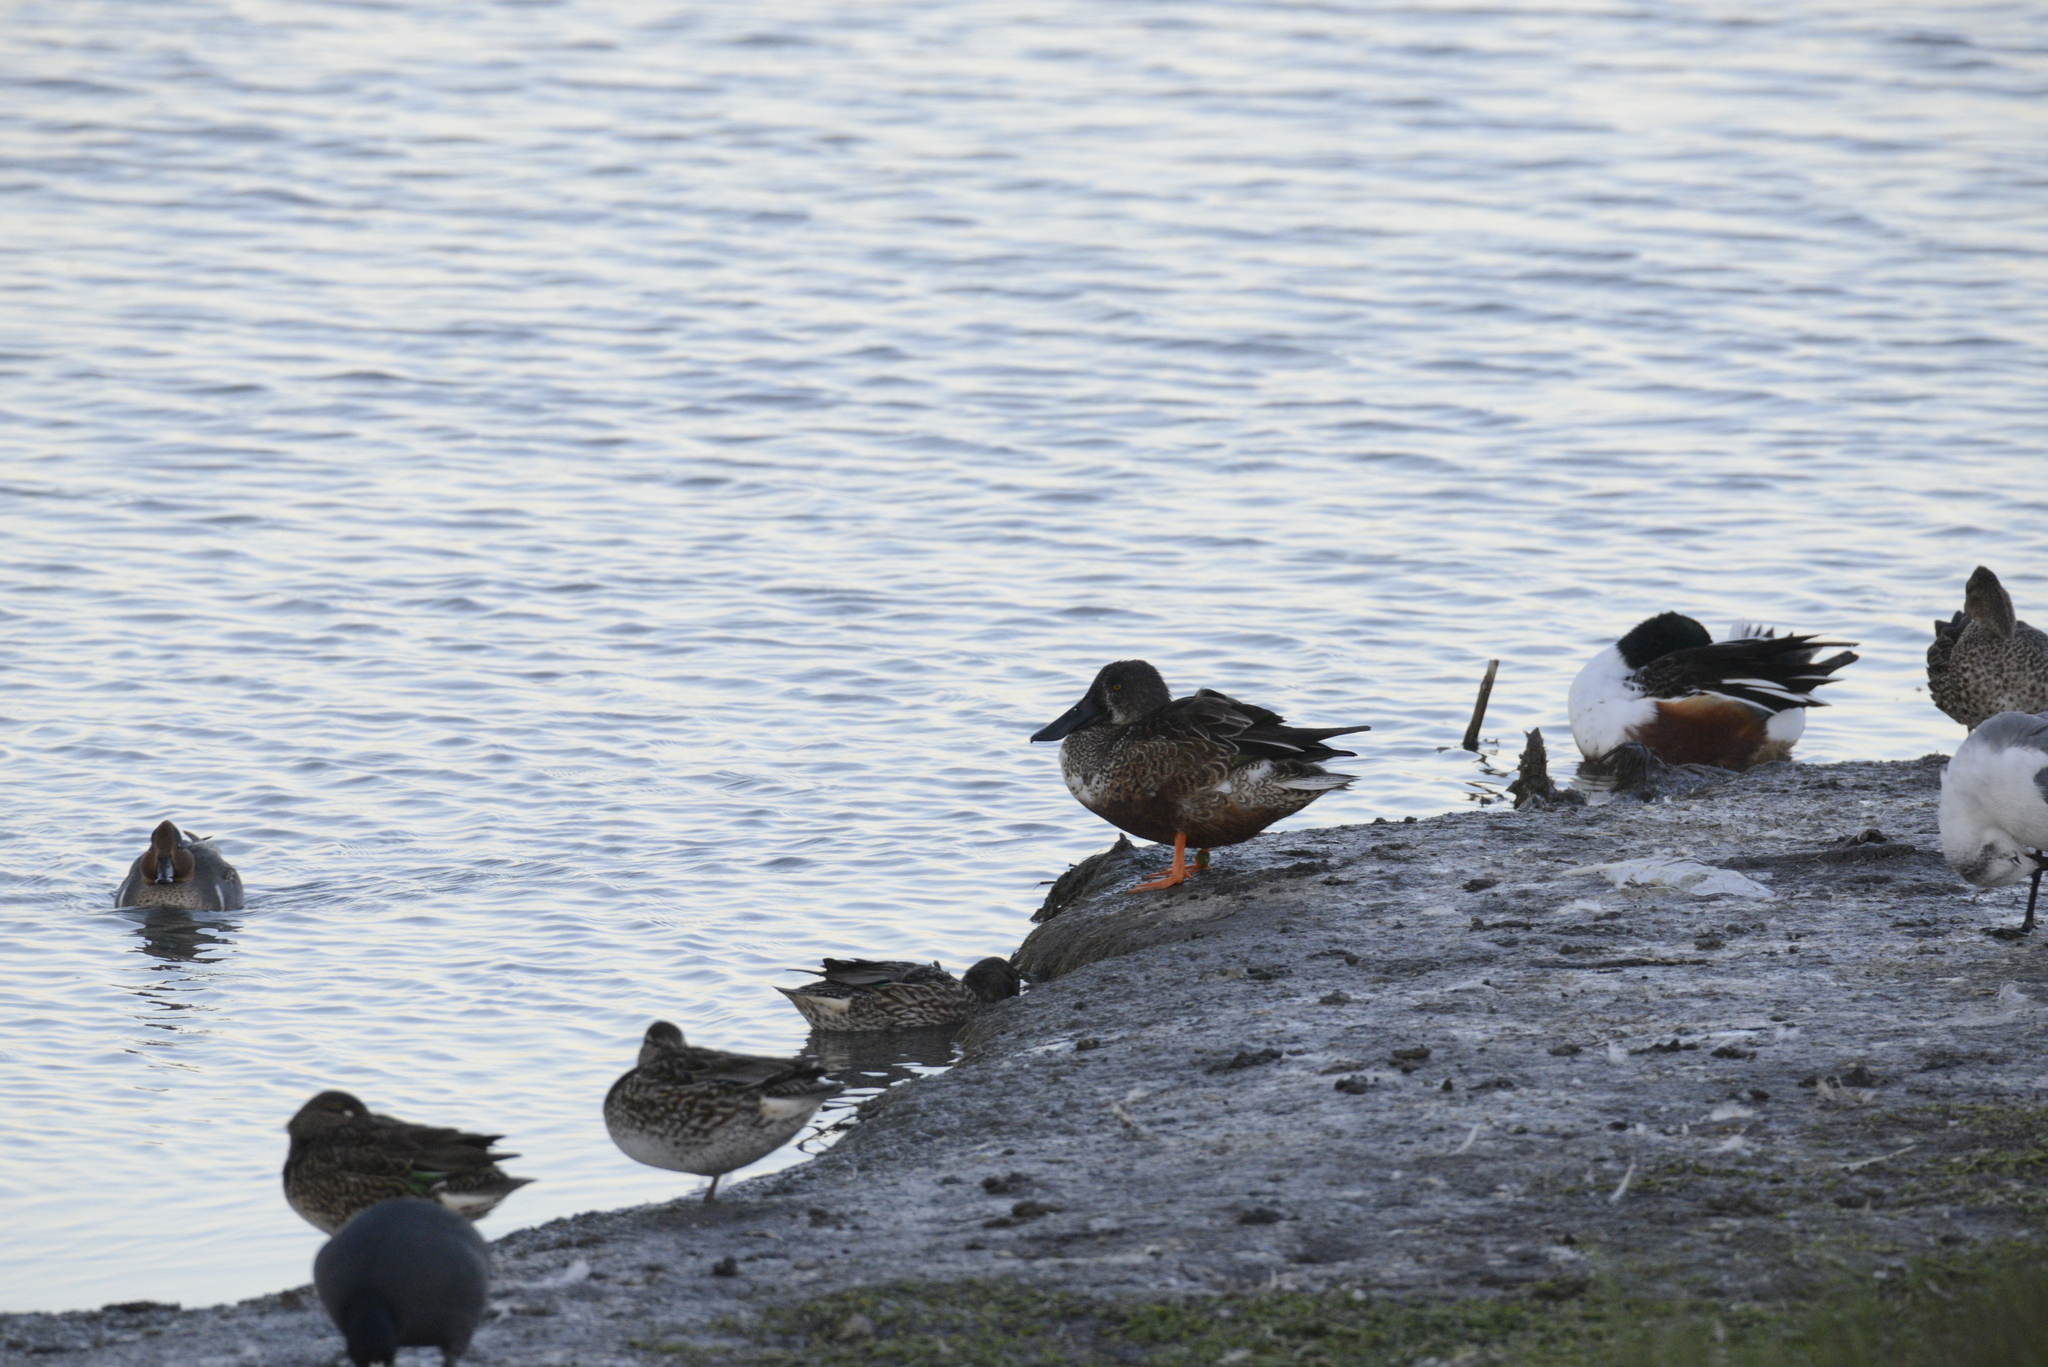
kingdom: Animalia
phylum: Chordata
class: Aves
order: Anseriformes
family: Anatidae
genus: Spatula
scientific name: Spatula clypeata
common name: Northern shoveler
